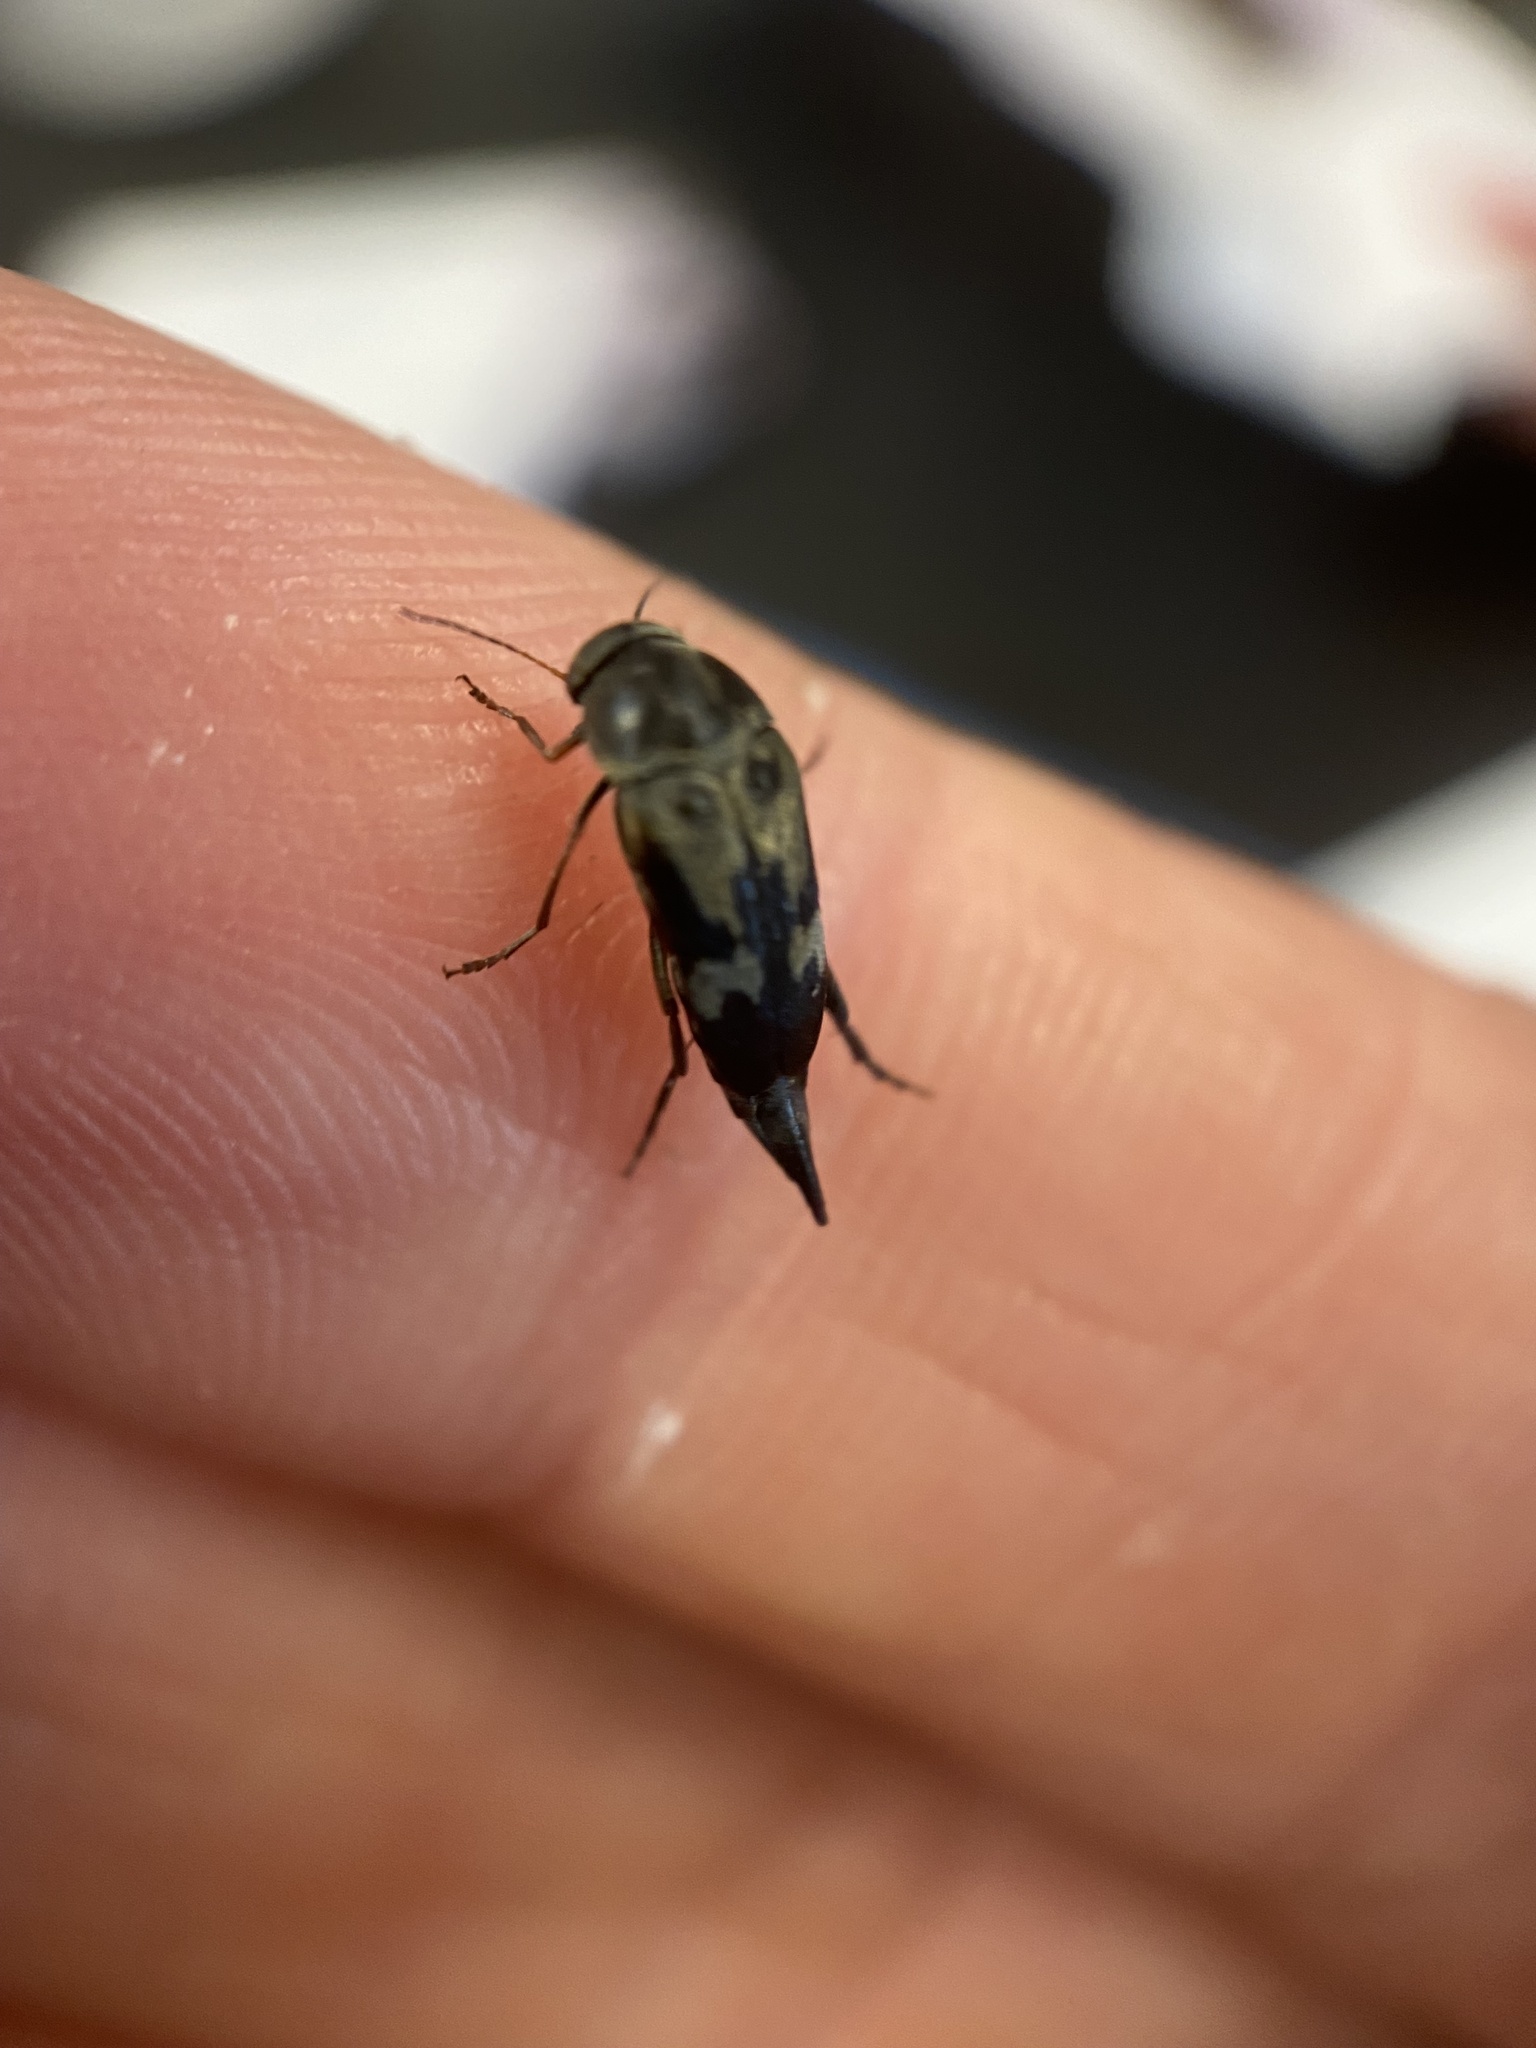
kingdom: Animalia
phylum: Arthropoda
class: Insecta
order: Coleoptera
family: Mordellidae
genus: Glipa
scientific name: Glipa oculata
